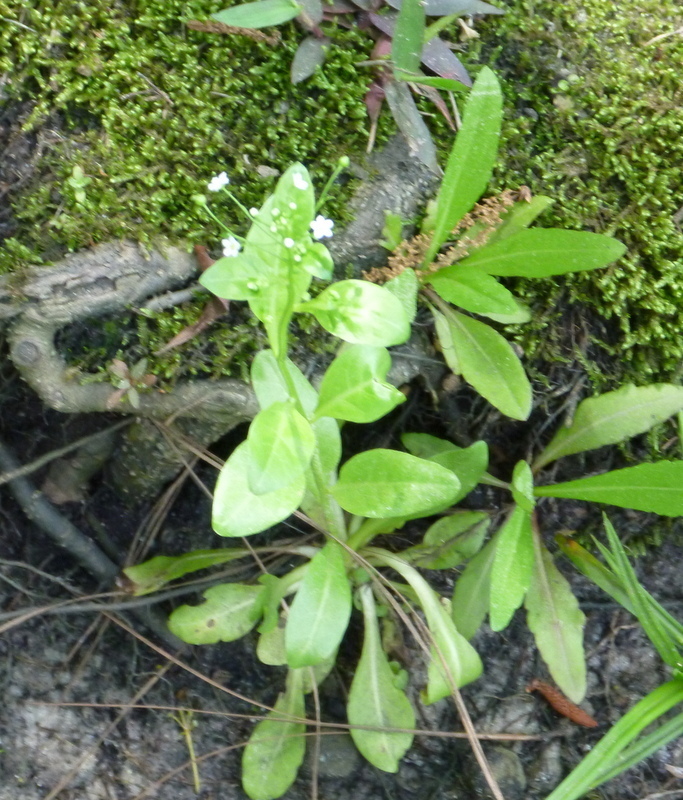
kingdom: Plantae
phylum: Tracheophyta
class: Magnoliopsida
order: Ericales
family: Primulaceae
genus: Samolus
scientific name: Samolus parviflorus
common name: False water pimpernel
